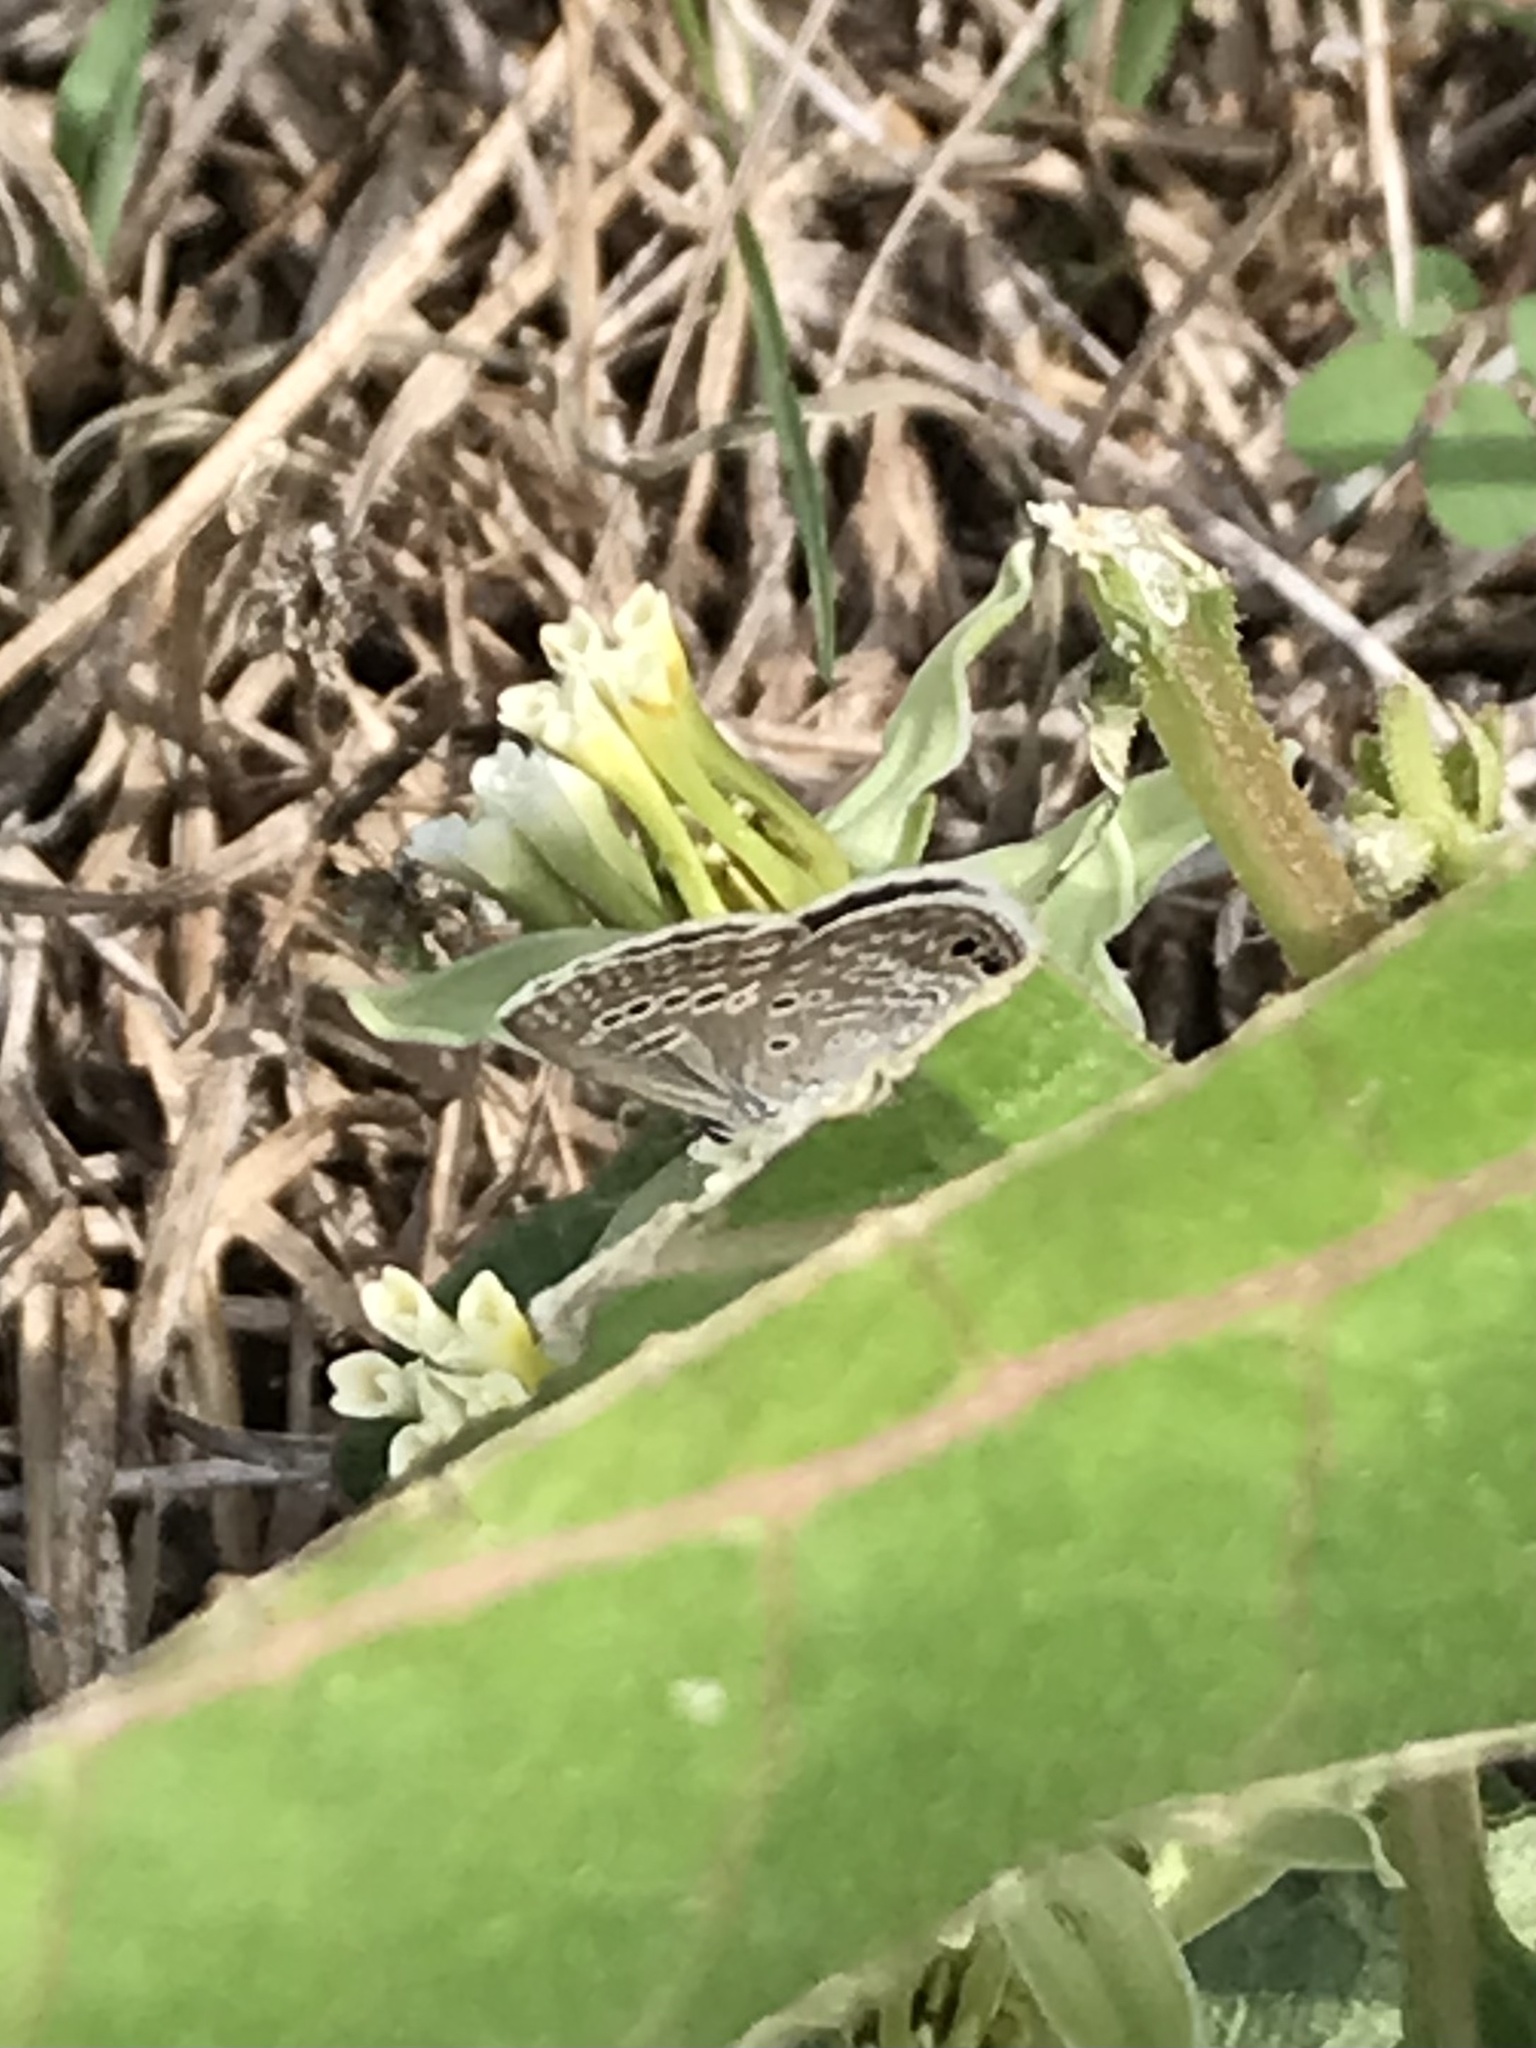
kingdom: Animalia
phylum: Arthropoda
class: Insecta
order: Lepidoptera
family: Lycaenidae
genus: Echinargus
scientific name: Echinargus isola
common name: Reakirt's blue
